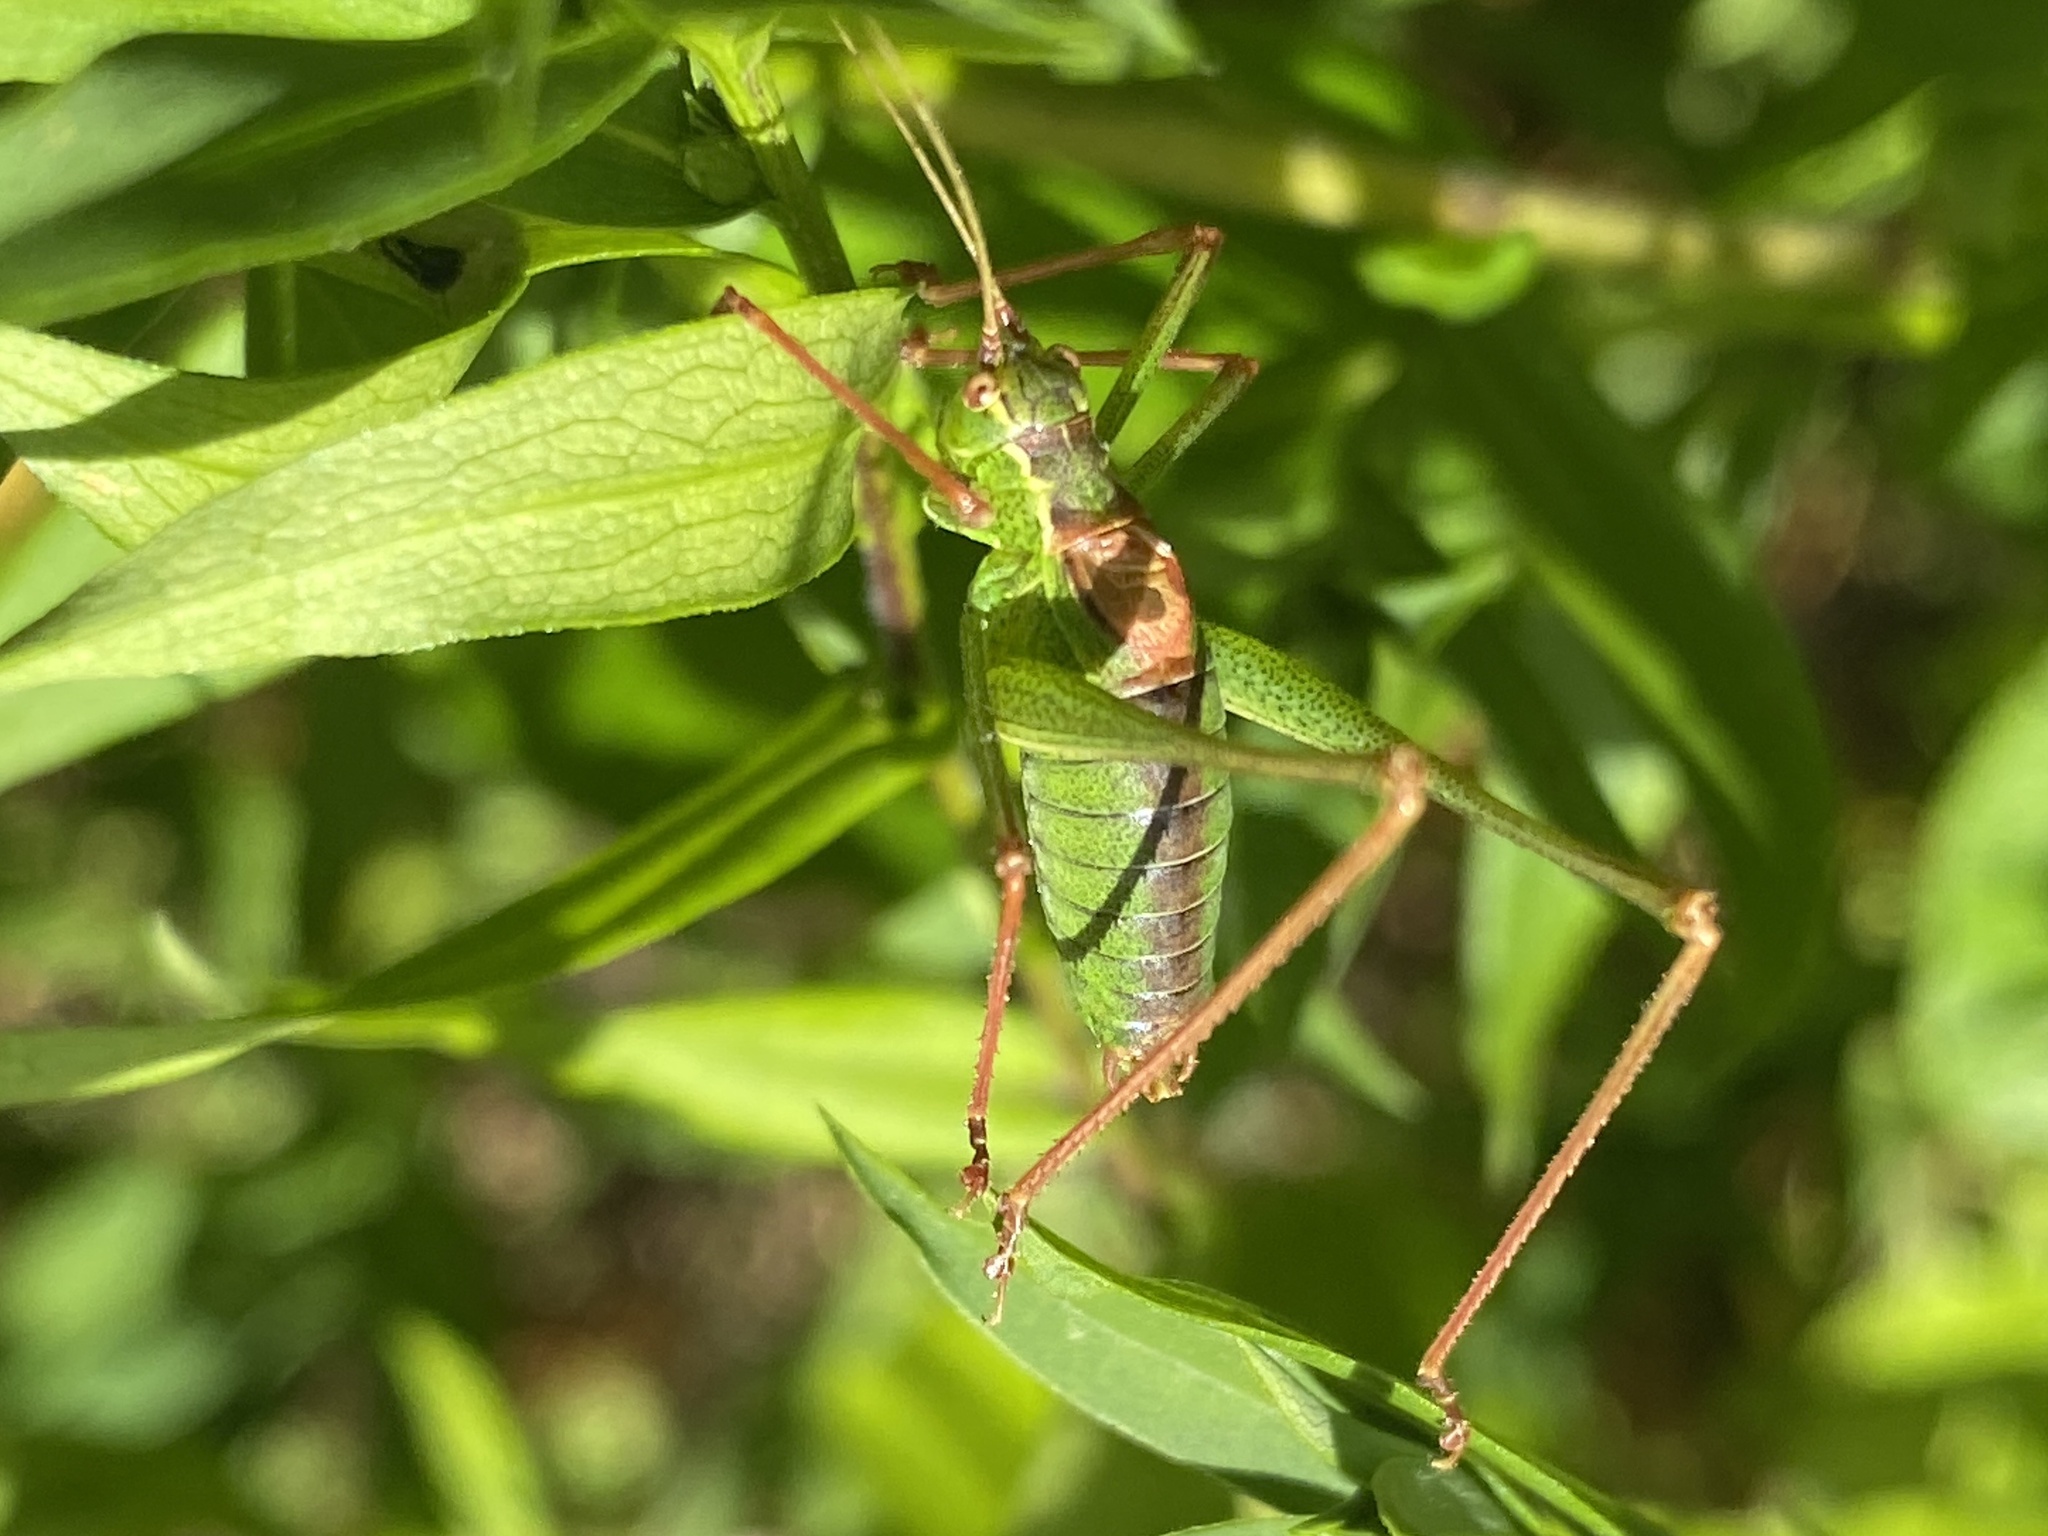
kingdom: Animalia
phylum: Arthropoda
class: Insecta
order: Orthoptera
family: Tettigoniidae
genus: Leptophyes
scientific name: Leptophyes punctatissima
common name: Speckled bush-cricket
